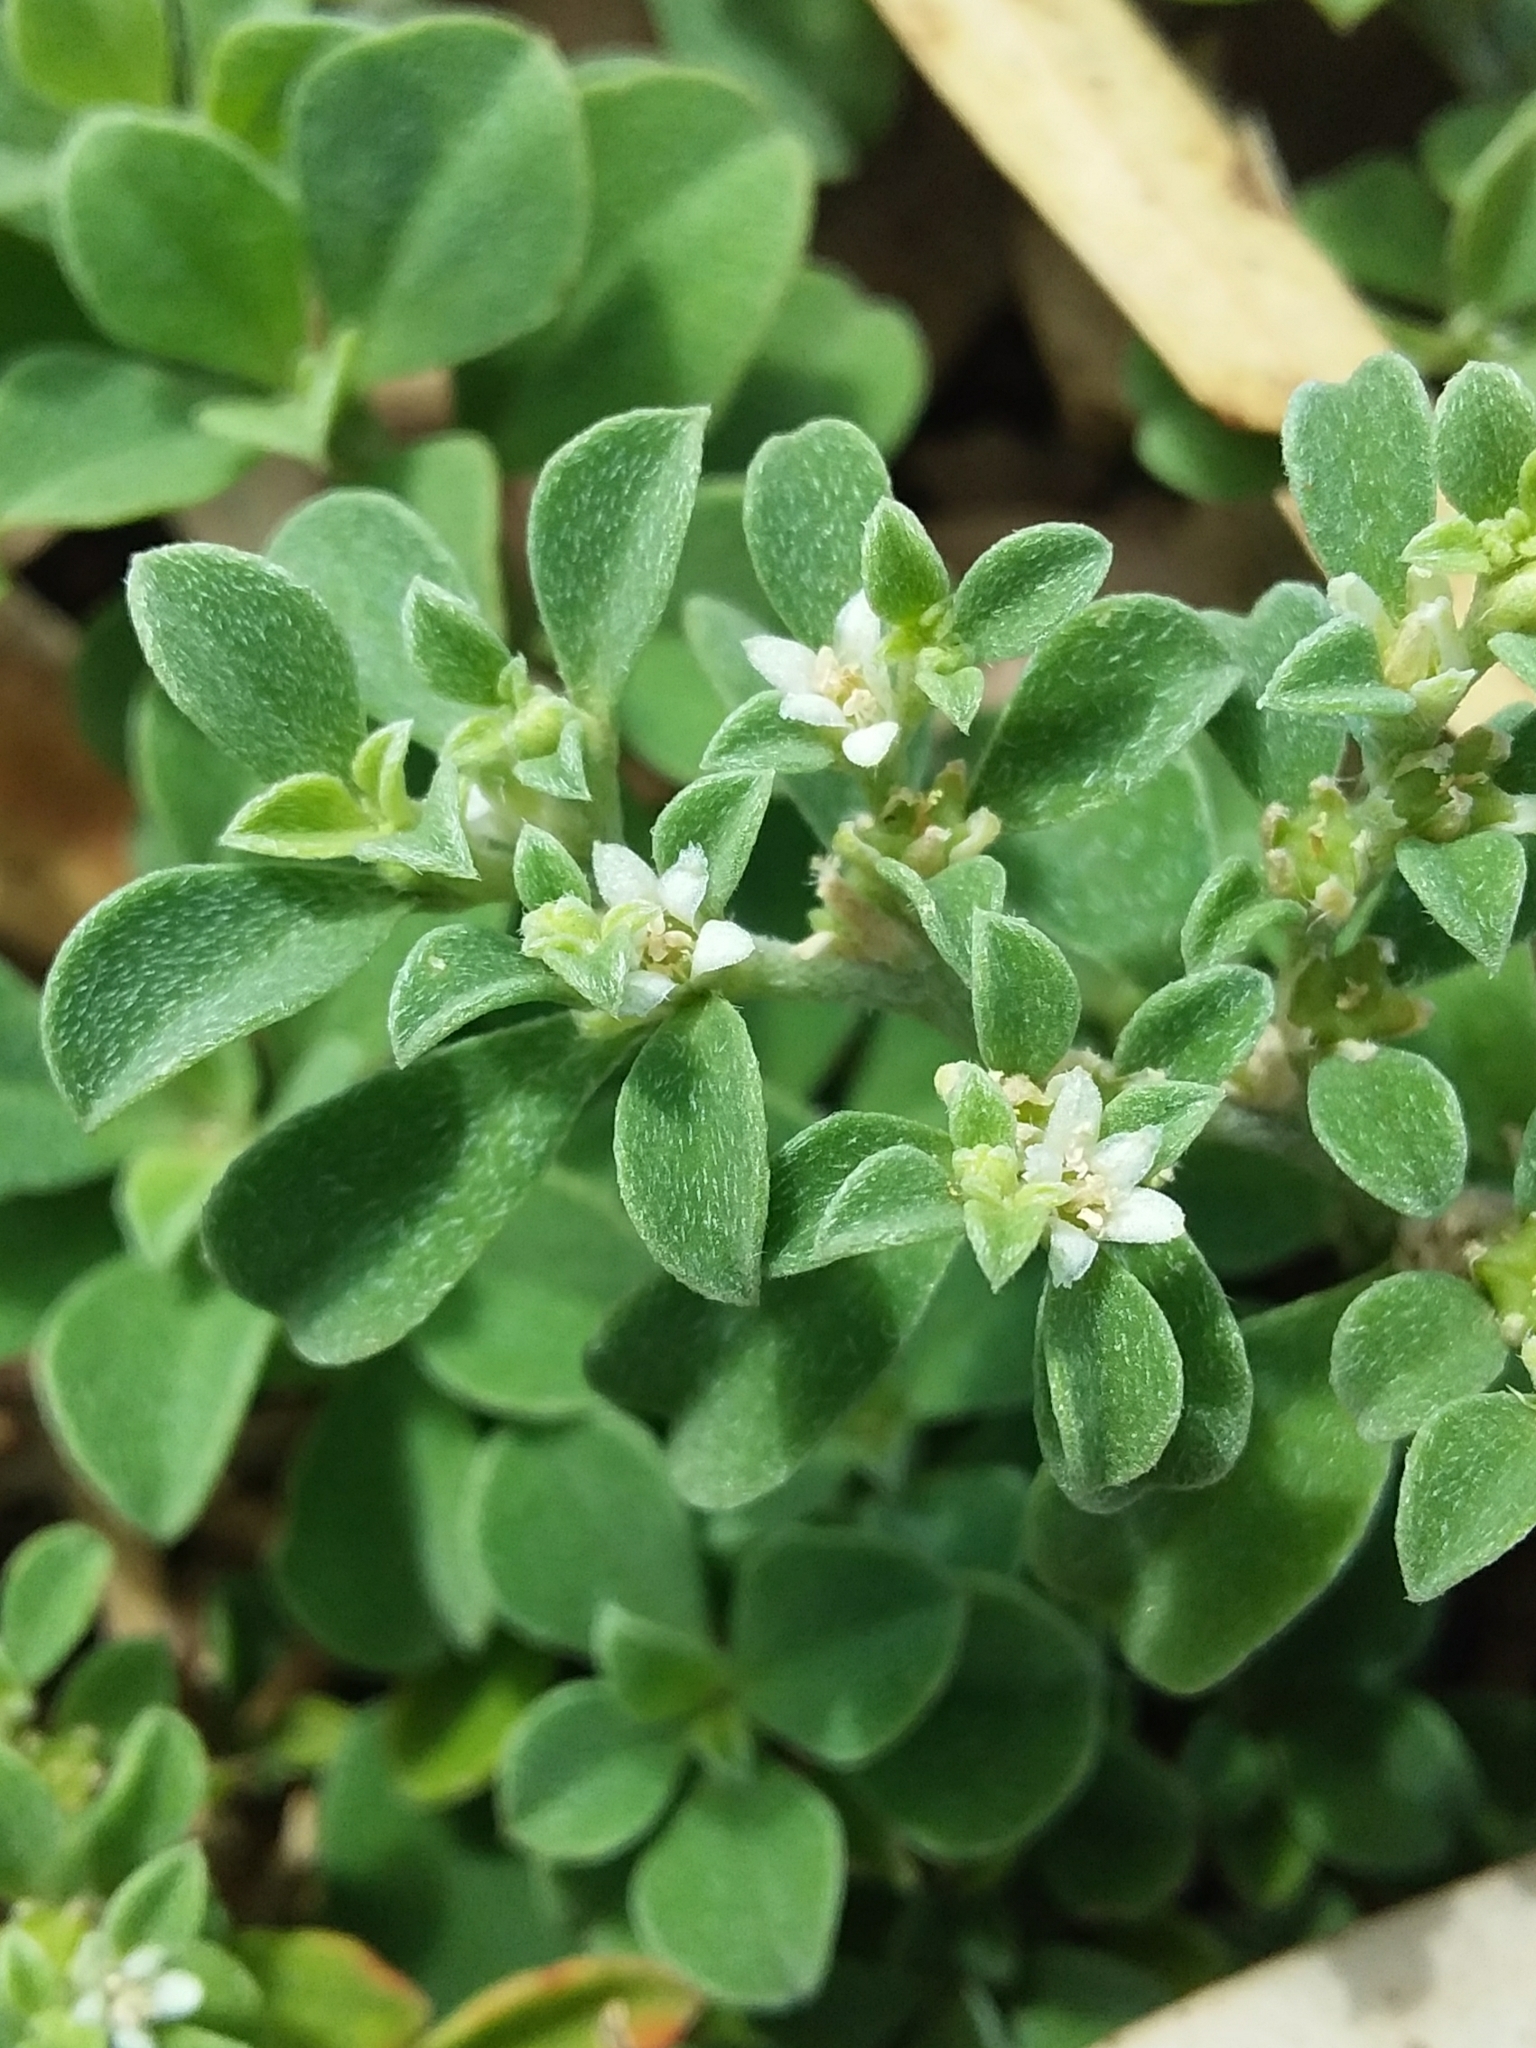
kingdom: Plantae
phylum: Tracheophyta
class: Magnoliopsida
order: Caryophyllales
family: Aizoaceae
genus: Aizoon
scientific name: Aizoon pubescens
